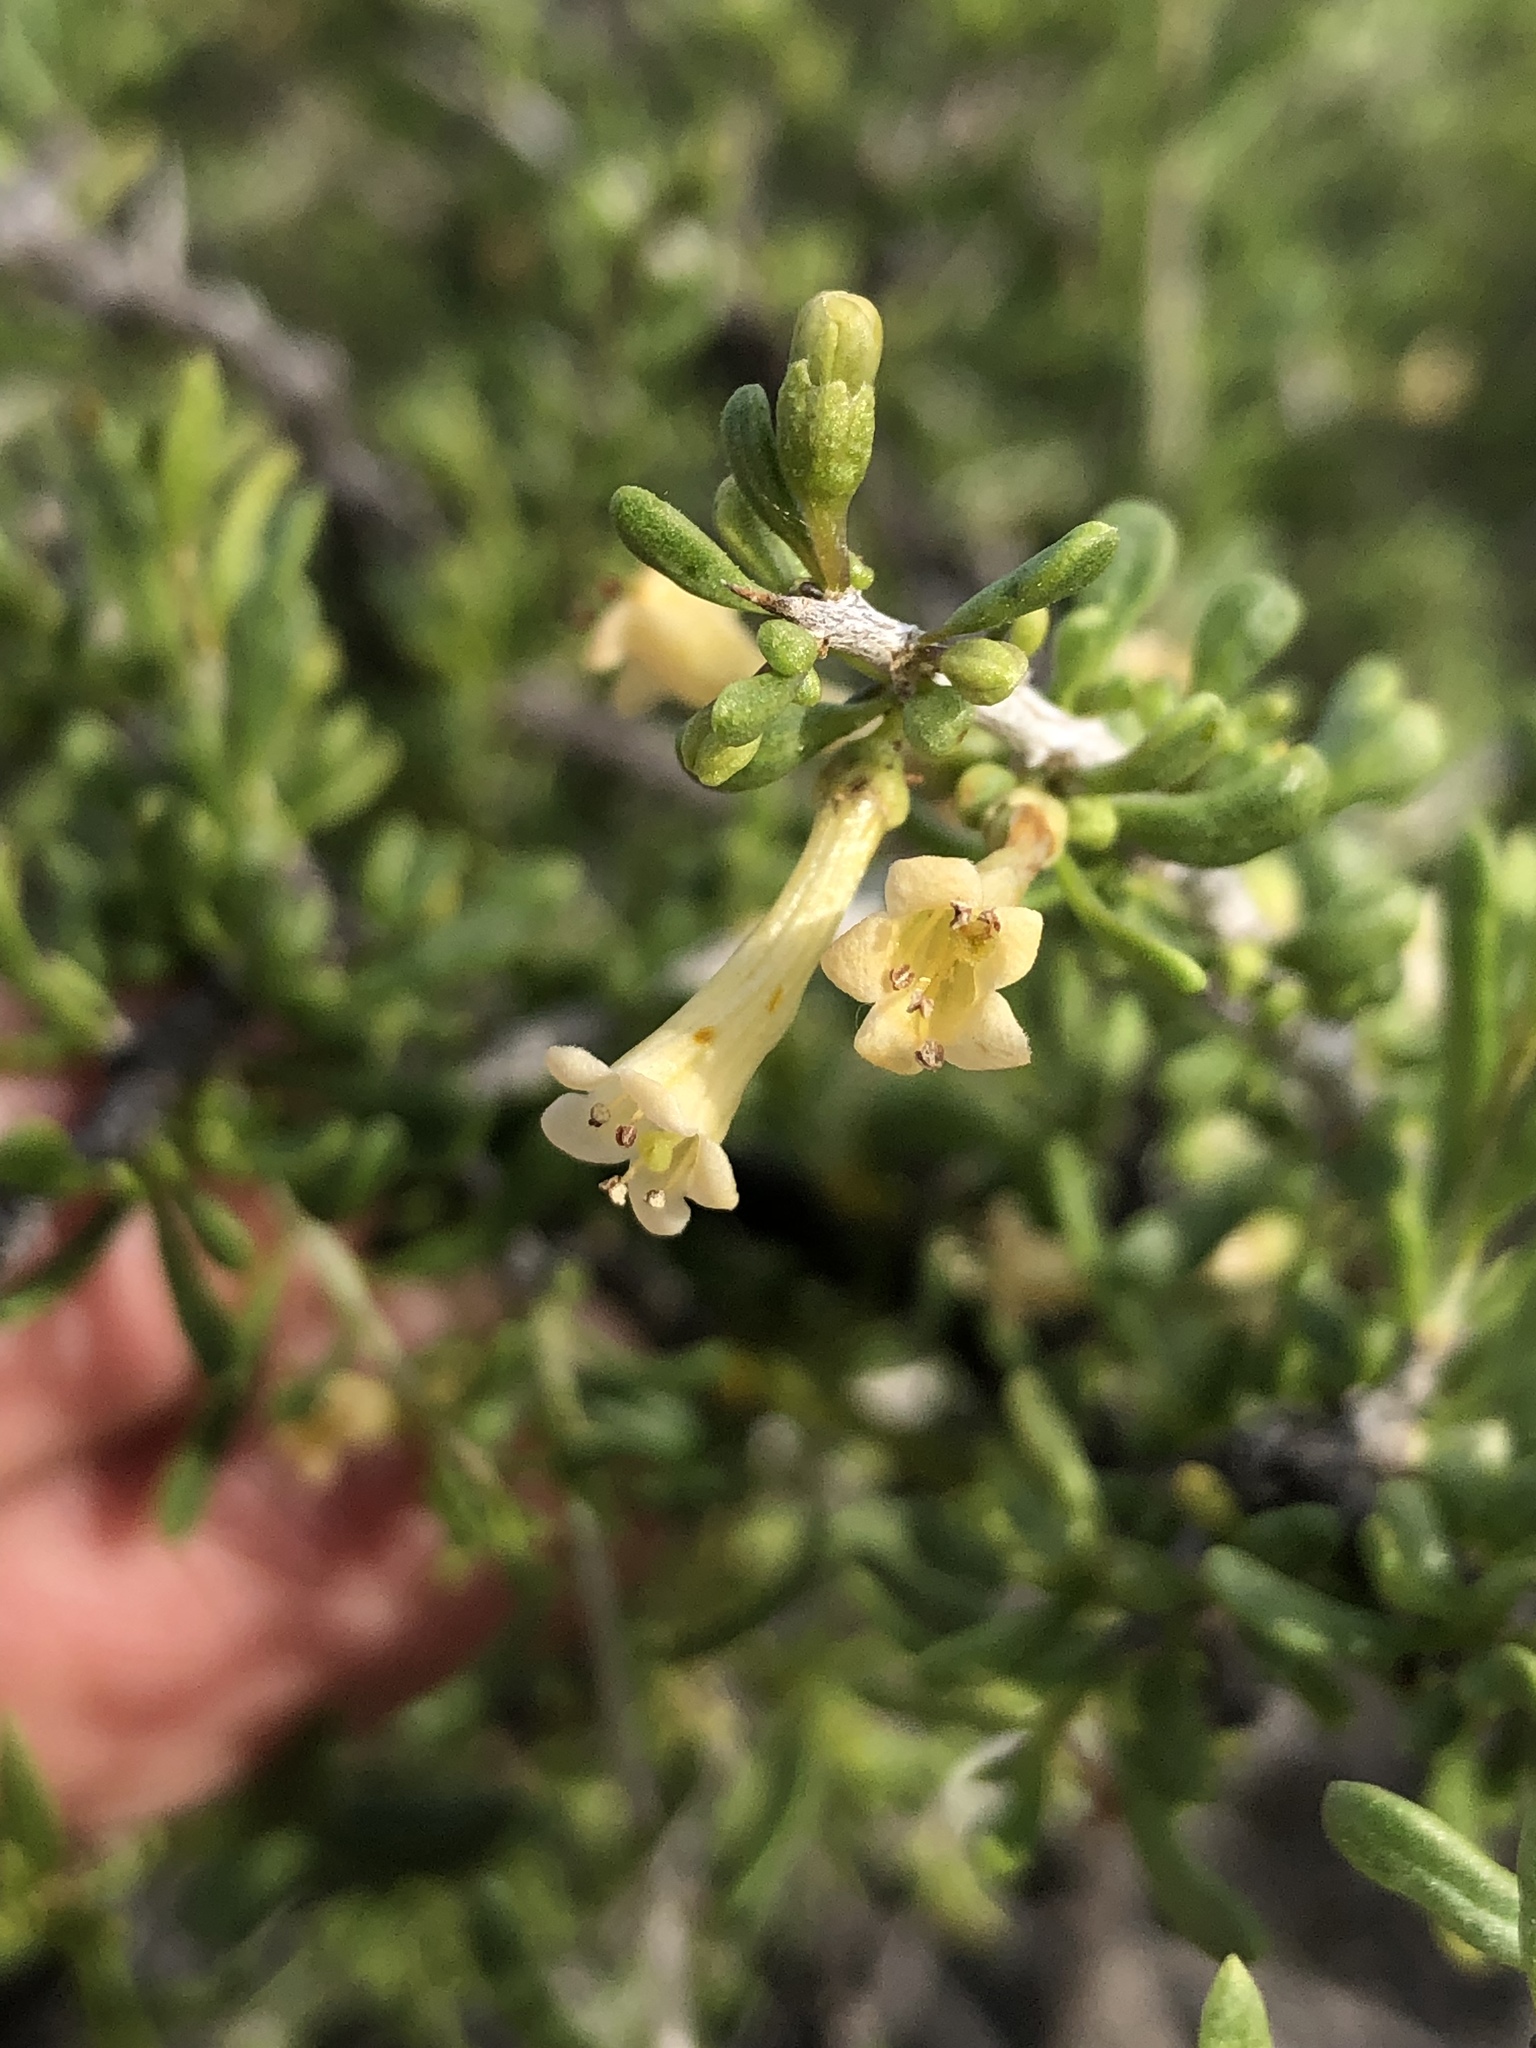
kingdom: Plantae
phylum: Tracheophyta
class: Magnoliopsida
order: Solanales
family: Solanaceae
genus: Lycium
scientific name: Lycium andersonii
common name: Water-jacket
